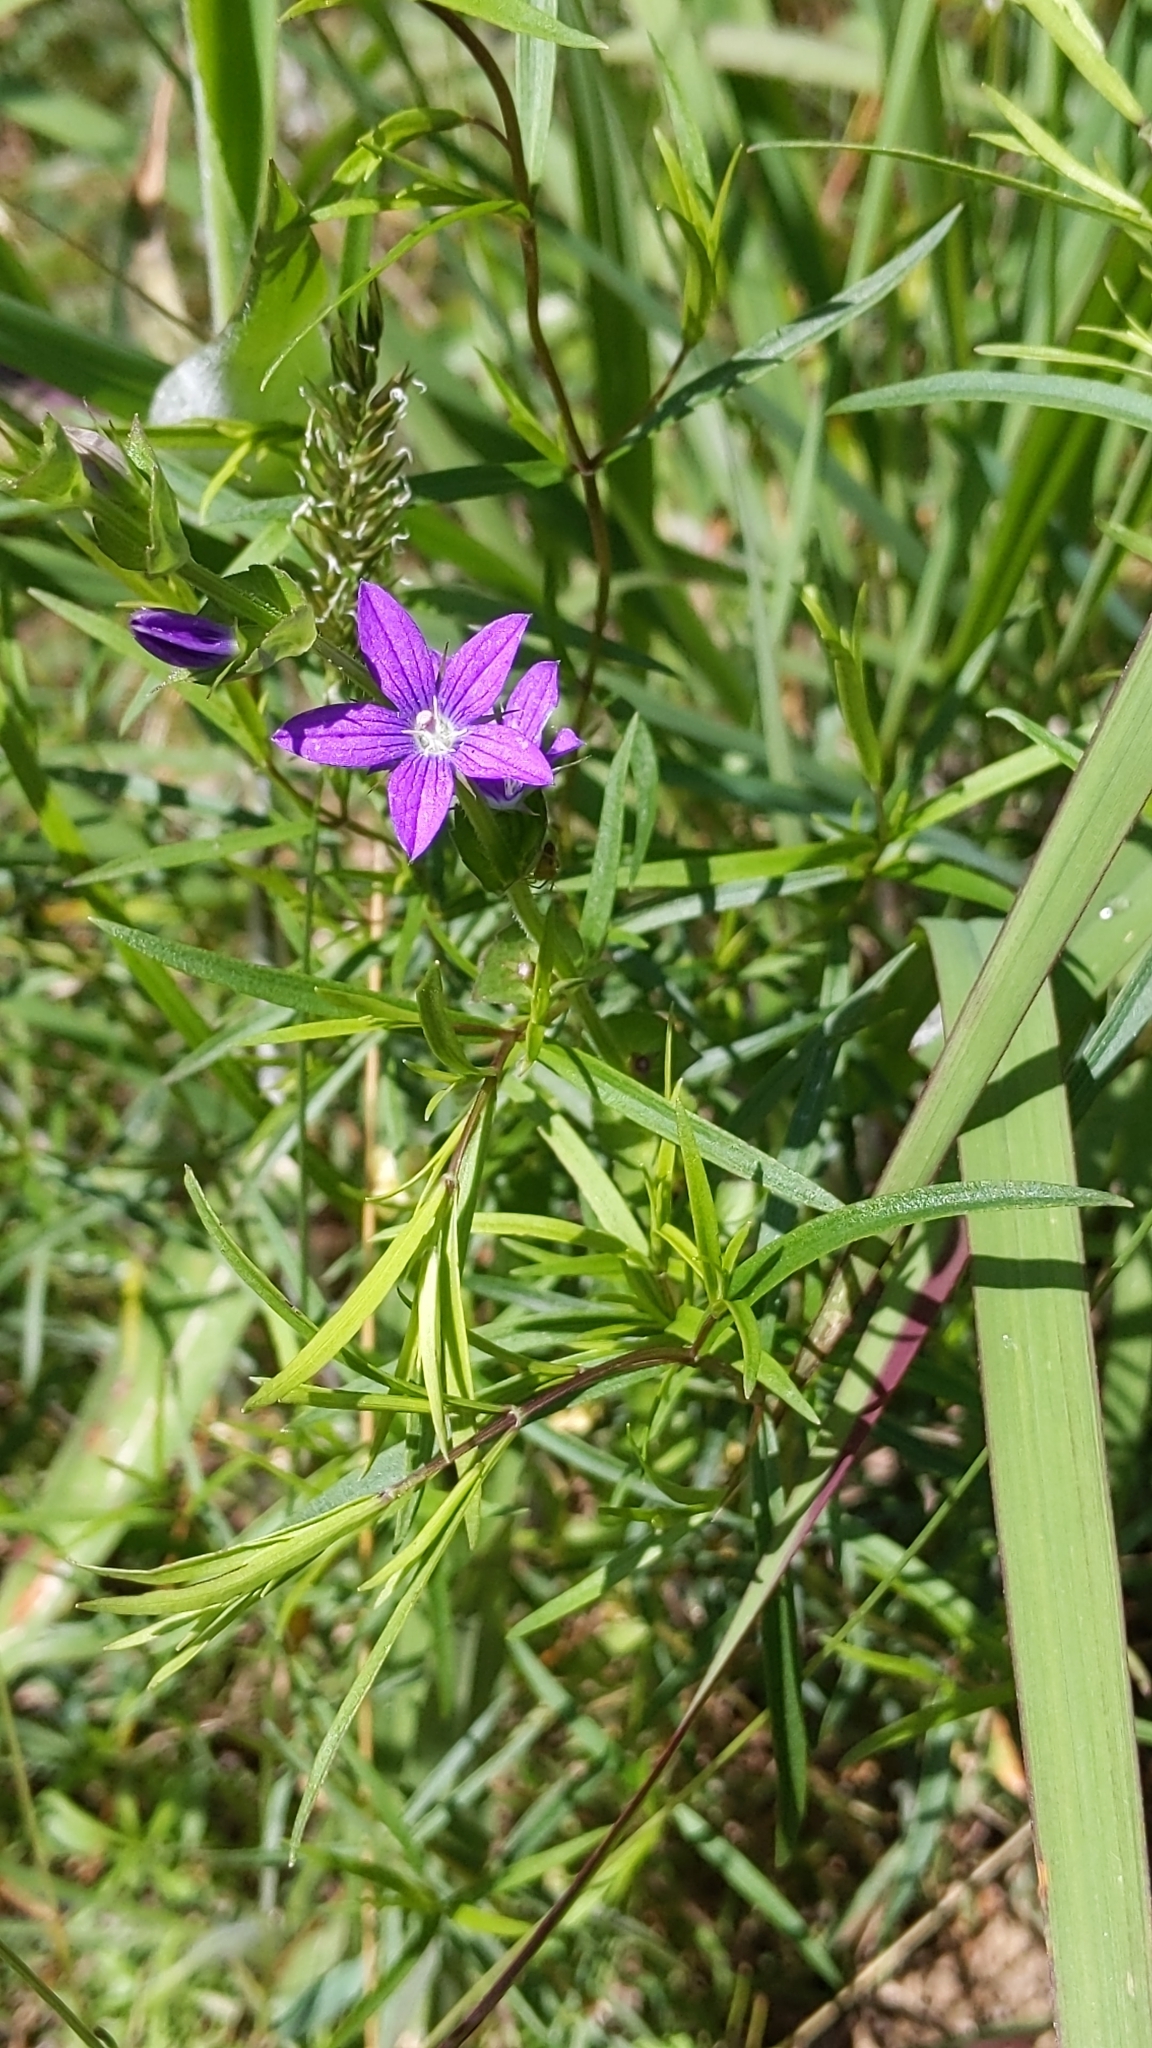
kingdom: Plantae
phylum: Tracheophyta
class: Magnoliopsida
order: Asterales
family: Campanulaceae
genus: Triodanis
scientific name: Triodanis perfoliata
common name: Clasping venus' looking-glass
